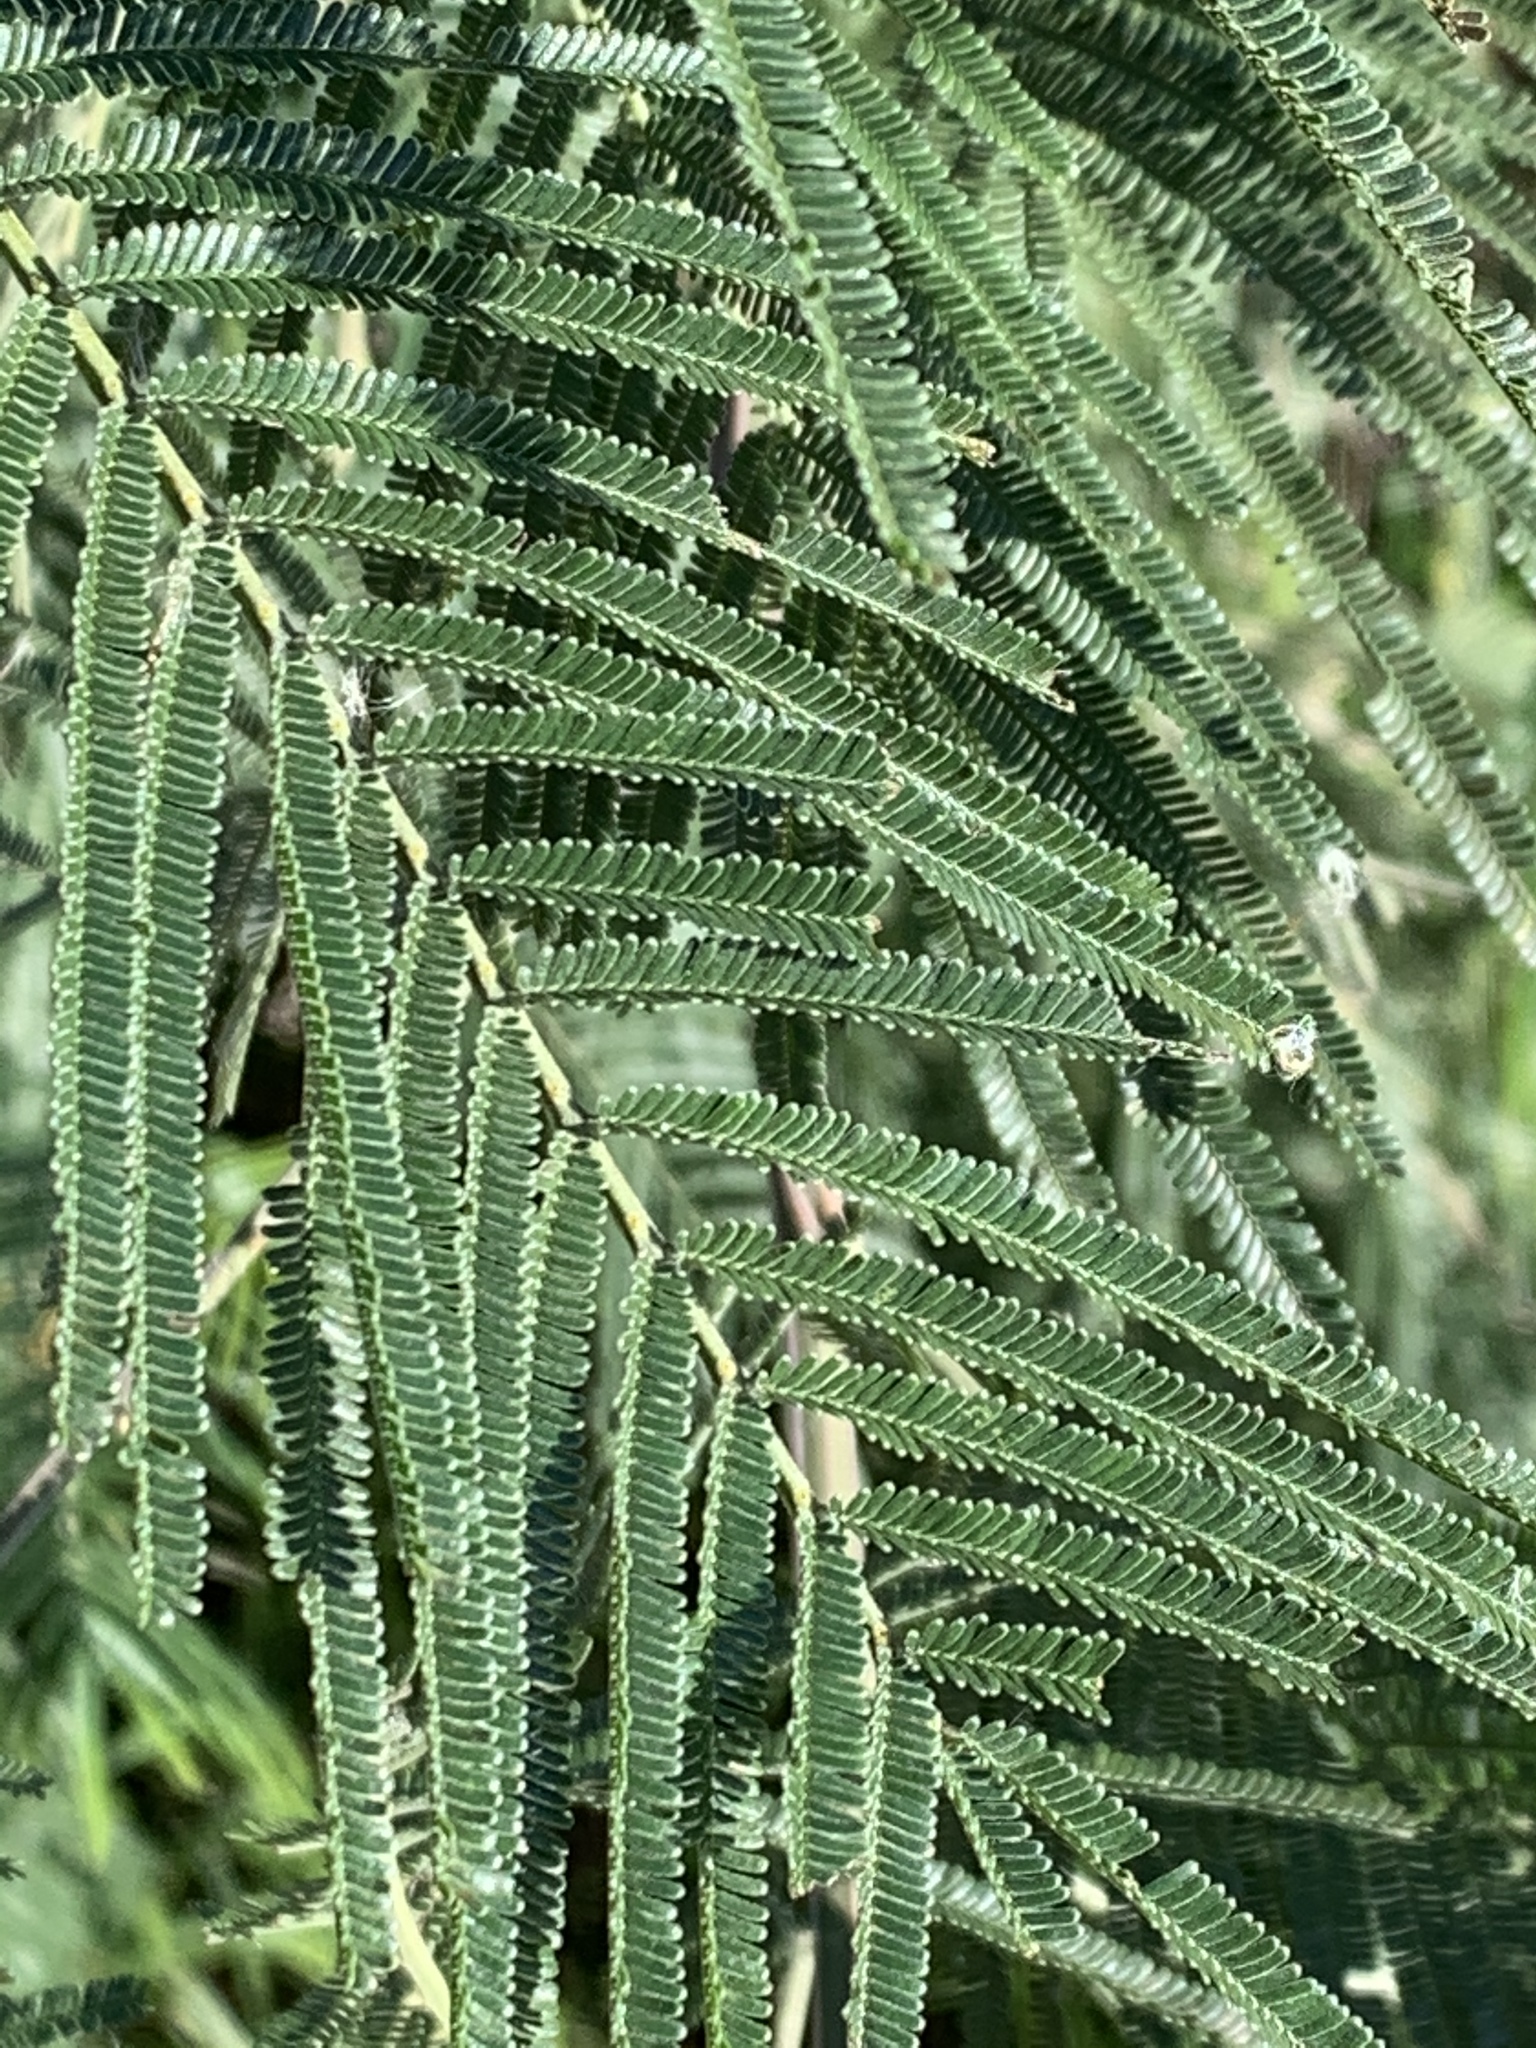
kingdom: Plantae
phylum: Tracheophyta
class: Magnoliopsida
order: Fabales
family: Fabaceae
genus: Acacia
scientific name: Acacia mearnsii
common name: Black wattle
